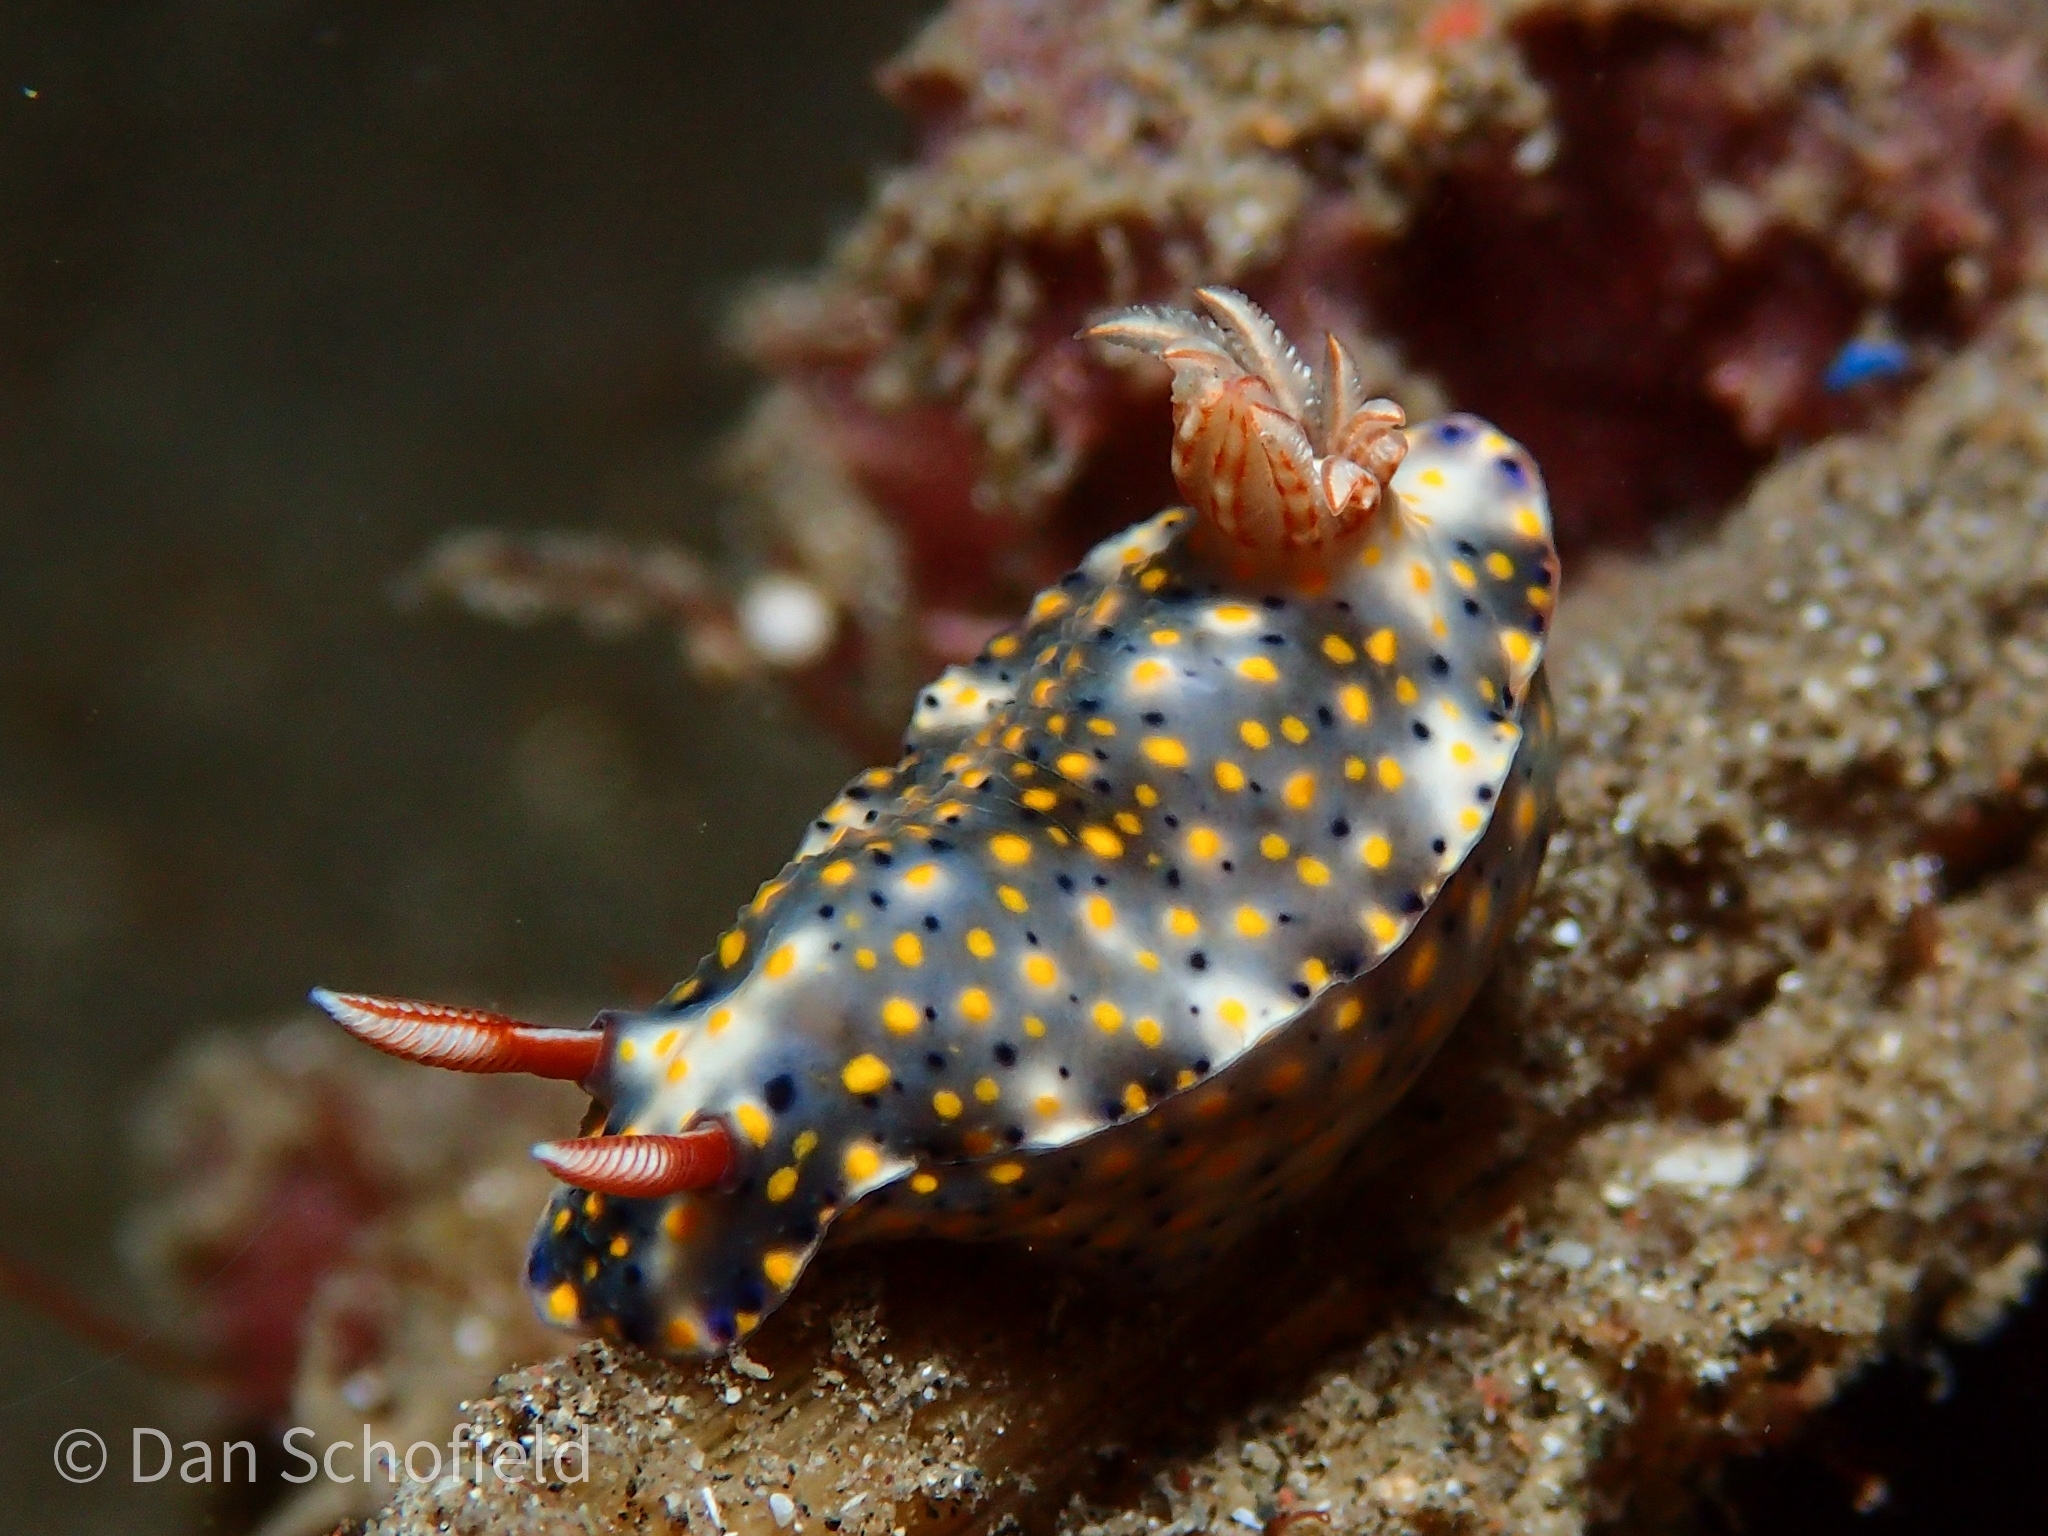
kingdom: Animalia
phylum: Mollusca
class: Gastropoda
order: Nudibranchia
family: Chromodorididae
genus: Hypselodoris
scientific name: Hypselodoris roo
